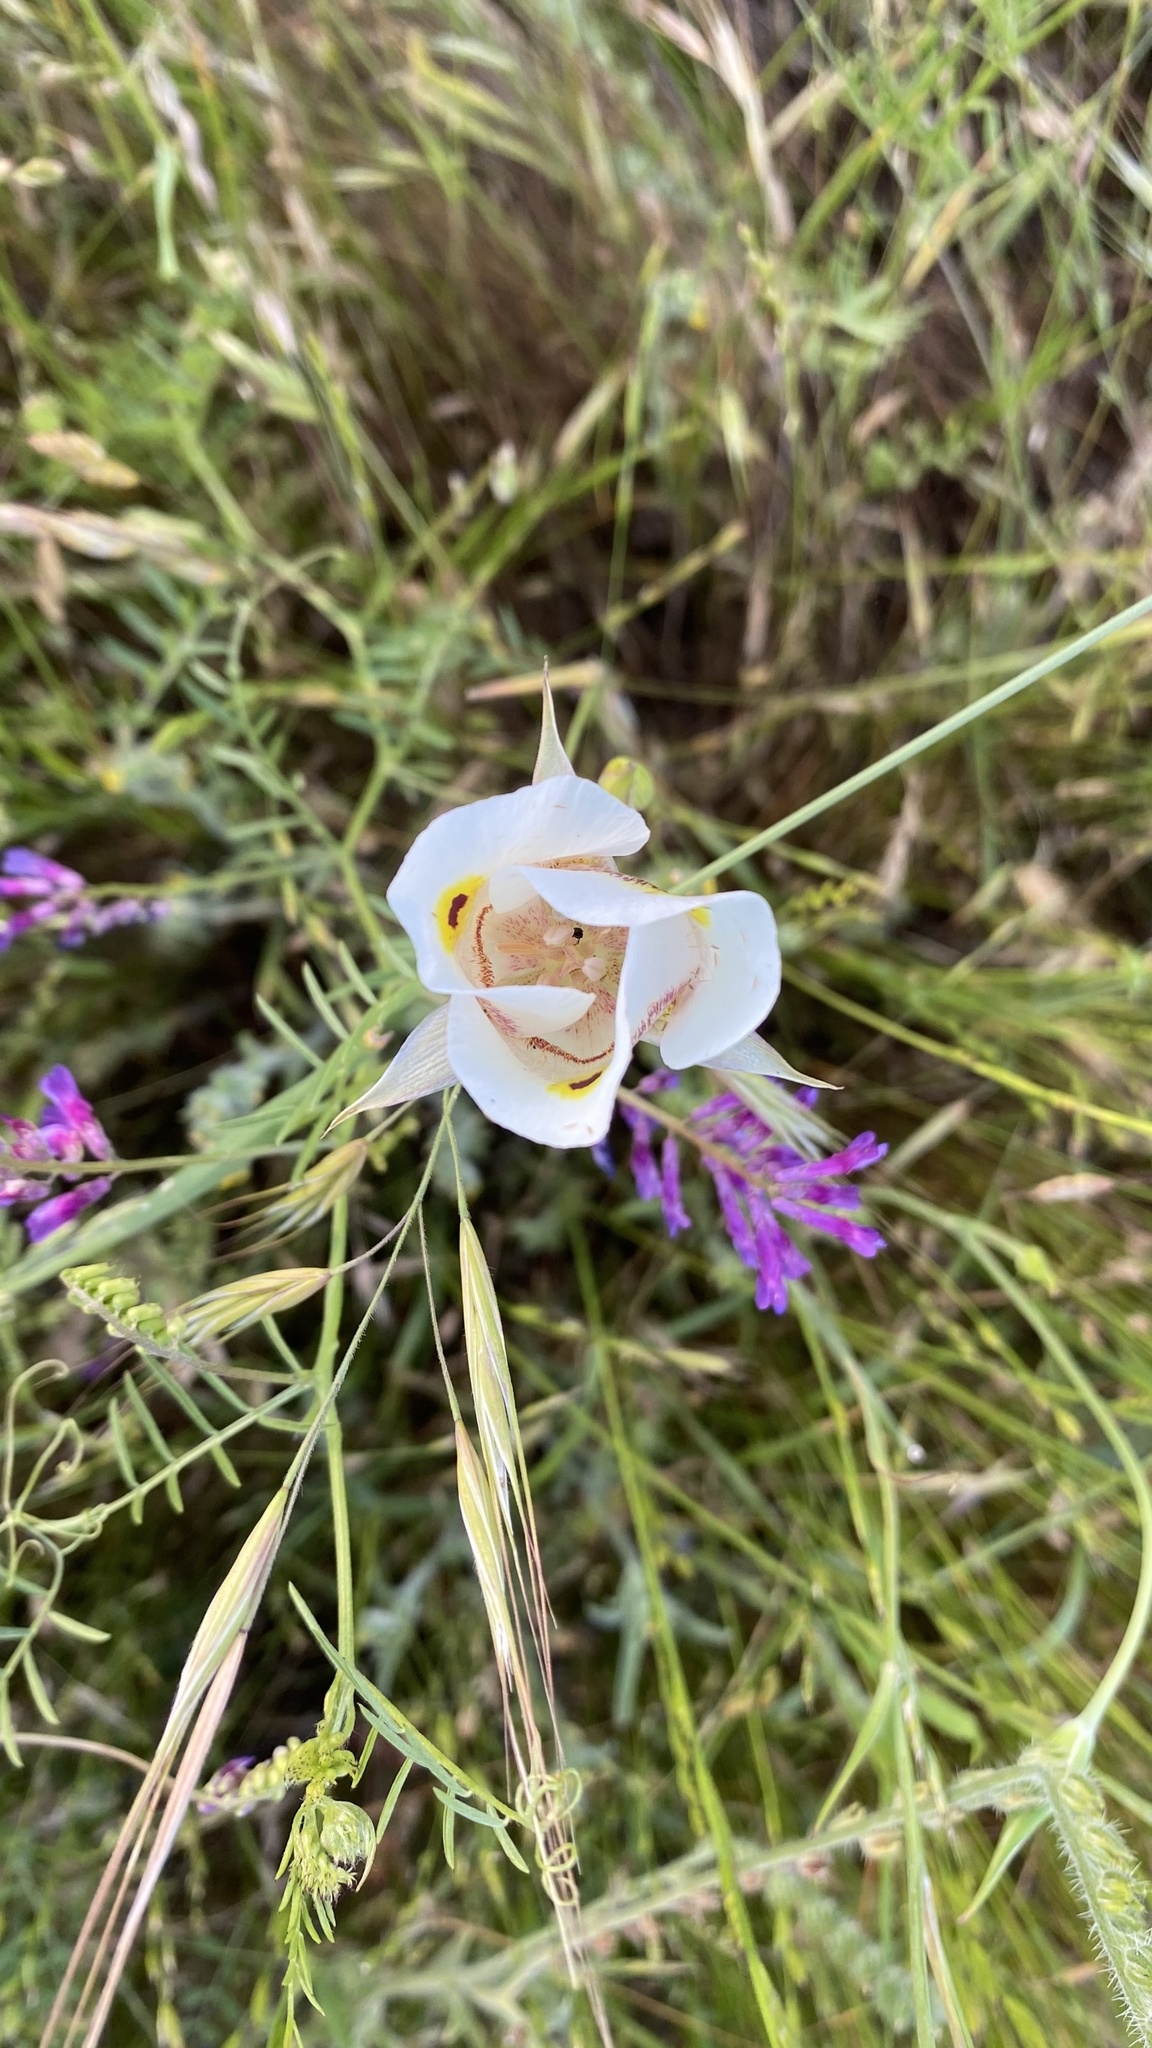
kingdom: Plantae
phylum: Tracheophyta
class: Liliopsida
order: Liliales
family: Liliaceae
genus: Calochortus
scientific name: Calochortus superbus
